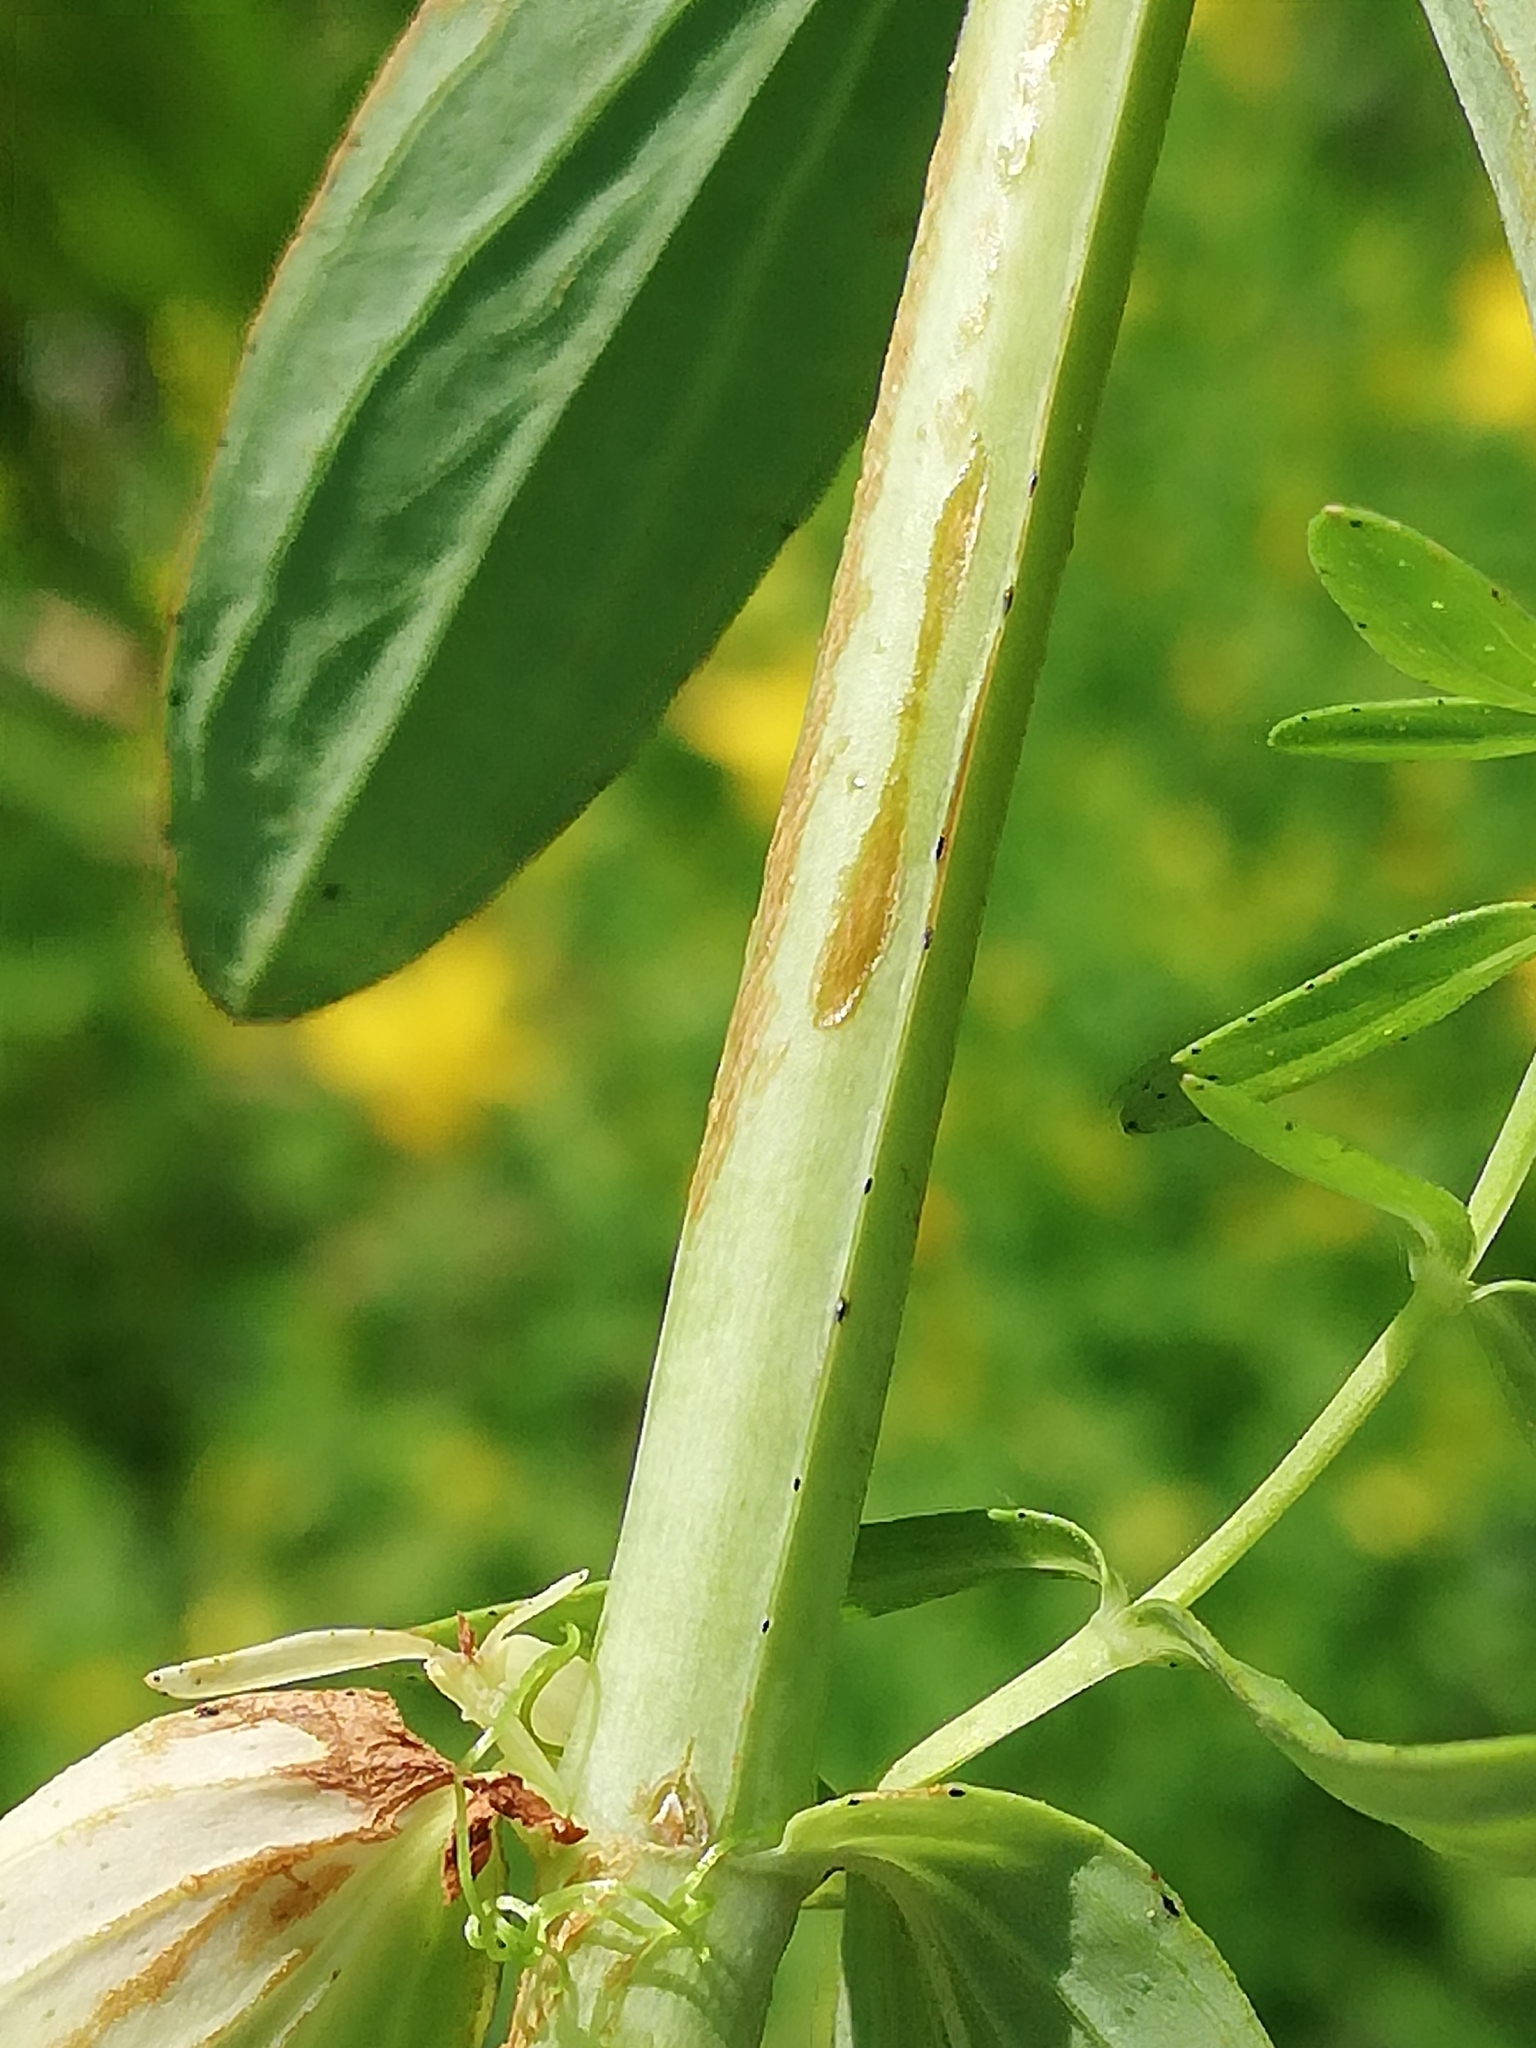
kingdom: Plantae
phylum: Tracheophyta
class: Magnoliopsida
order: Malpighiales
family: Hypericaceae
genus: Hypericum
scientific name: Hypericum perforatum
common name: Common st. johnswort
